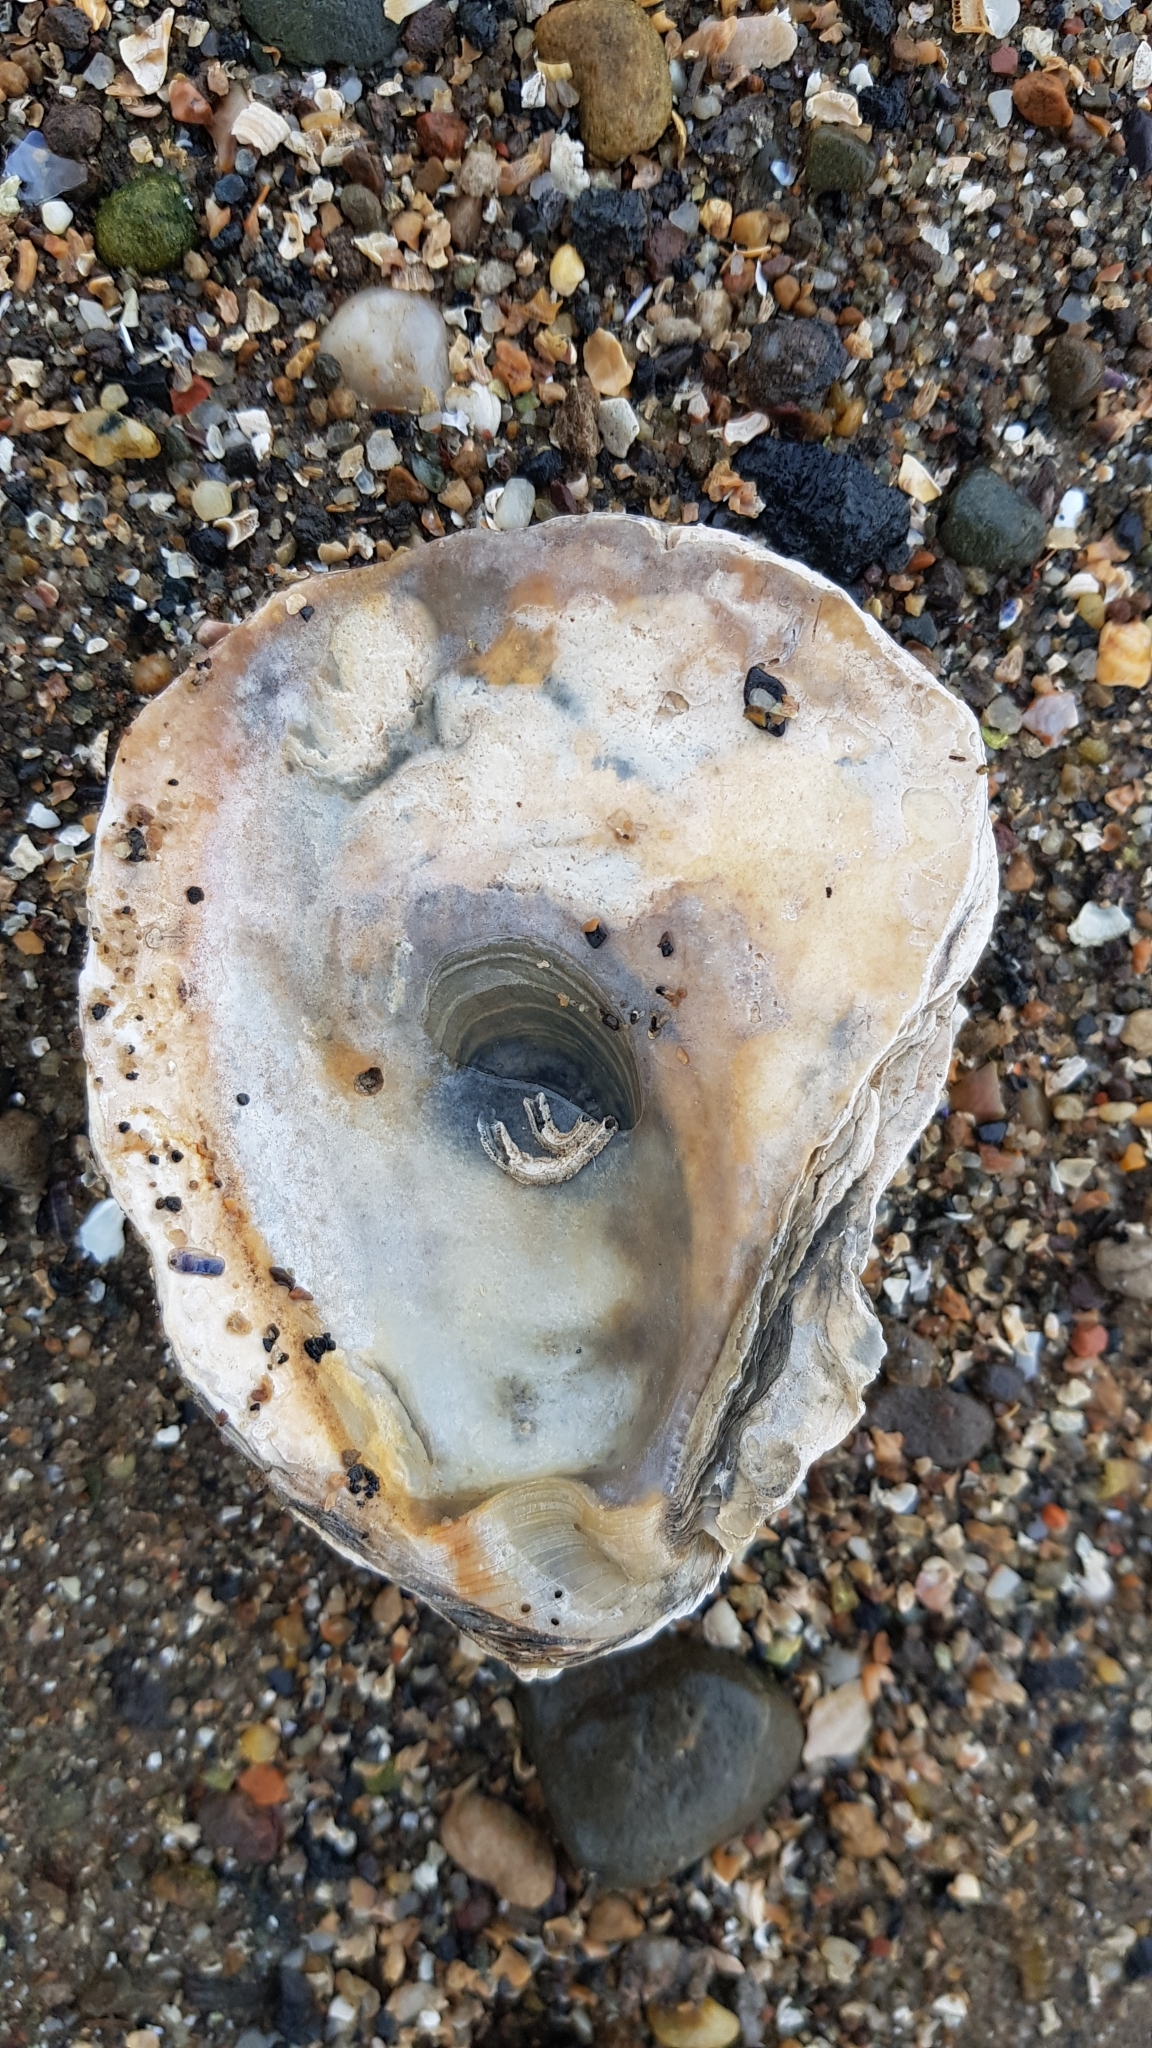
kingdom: Animalia
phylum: Mollusca
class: Bivalvia
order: Ostreida
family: Ostreidae
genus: Ostrea
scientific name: Ostrea edulis
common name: Flat oyster
